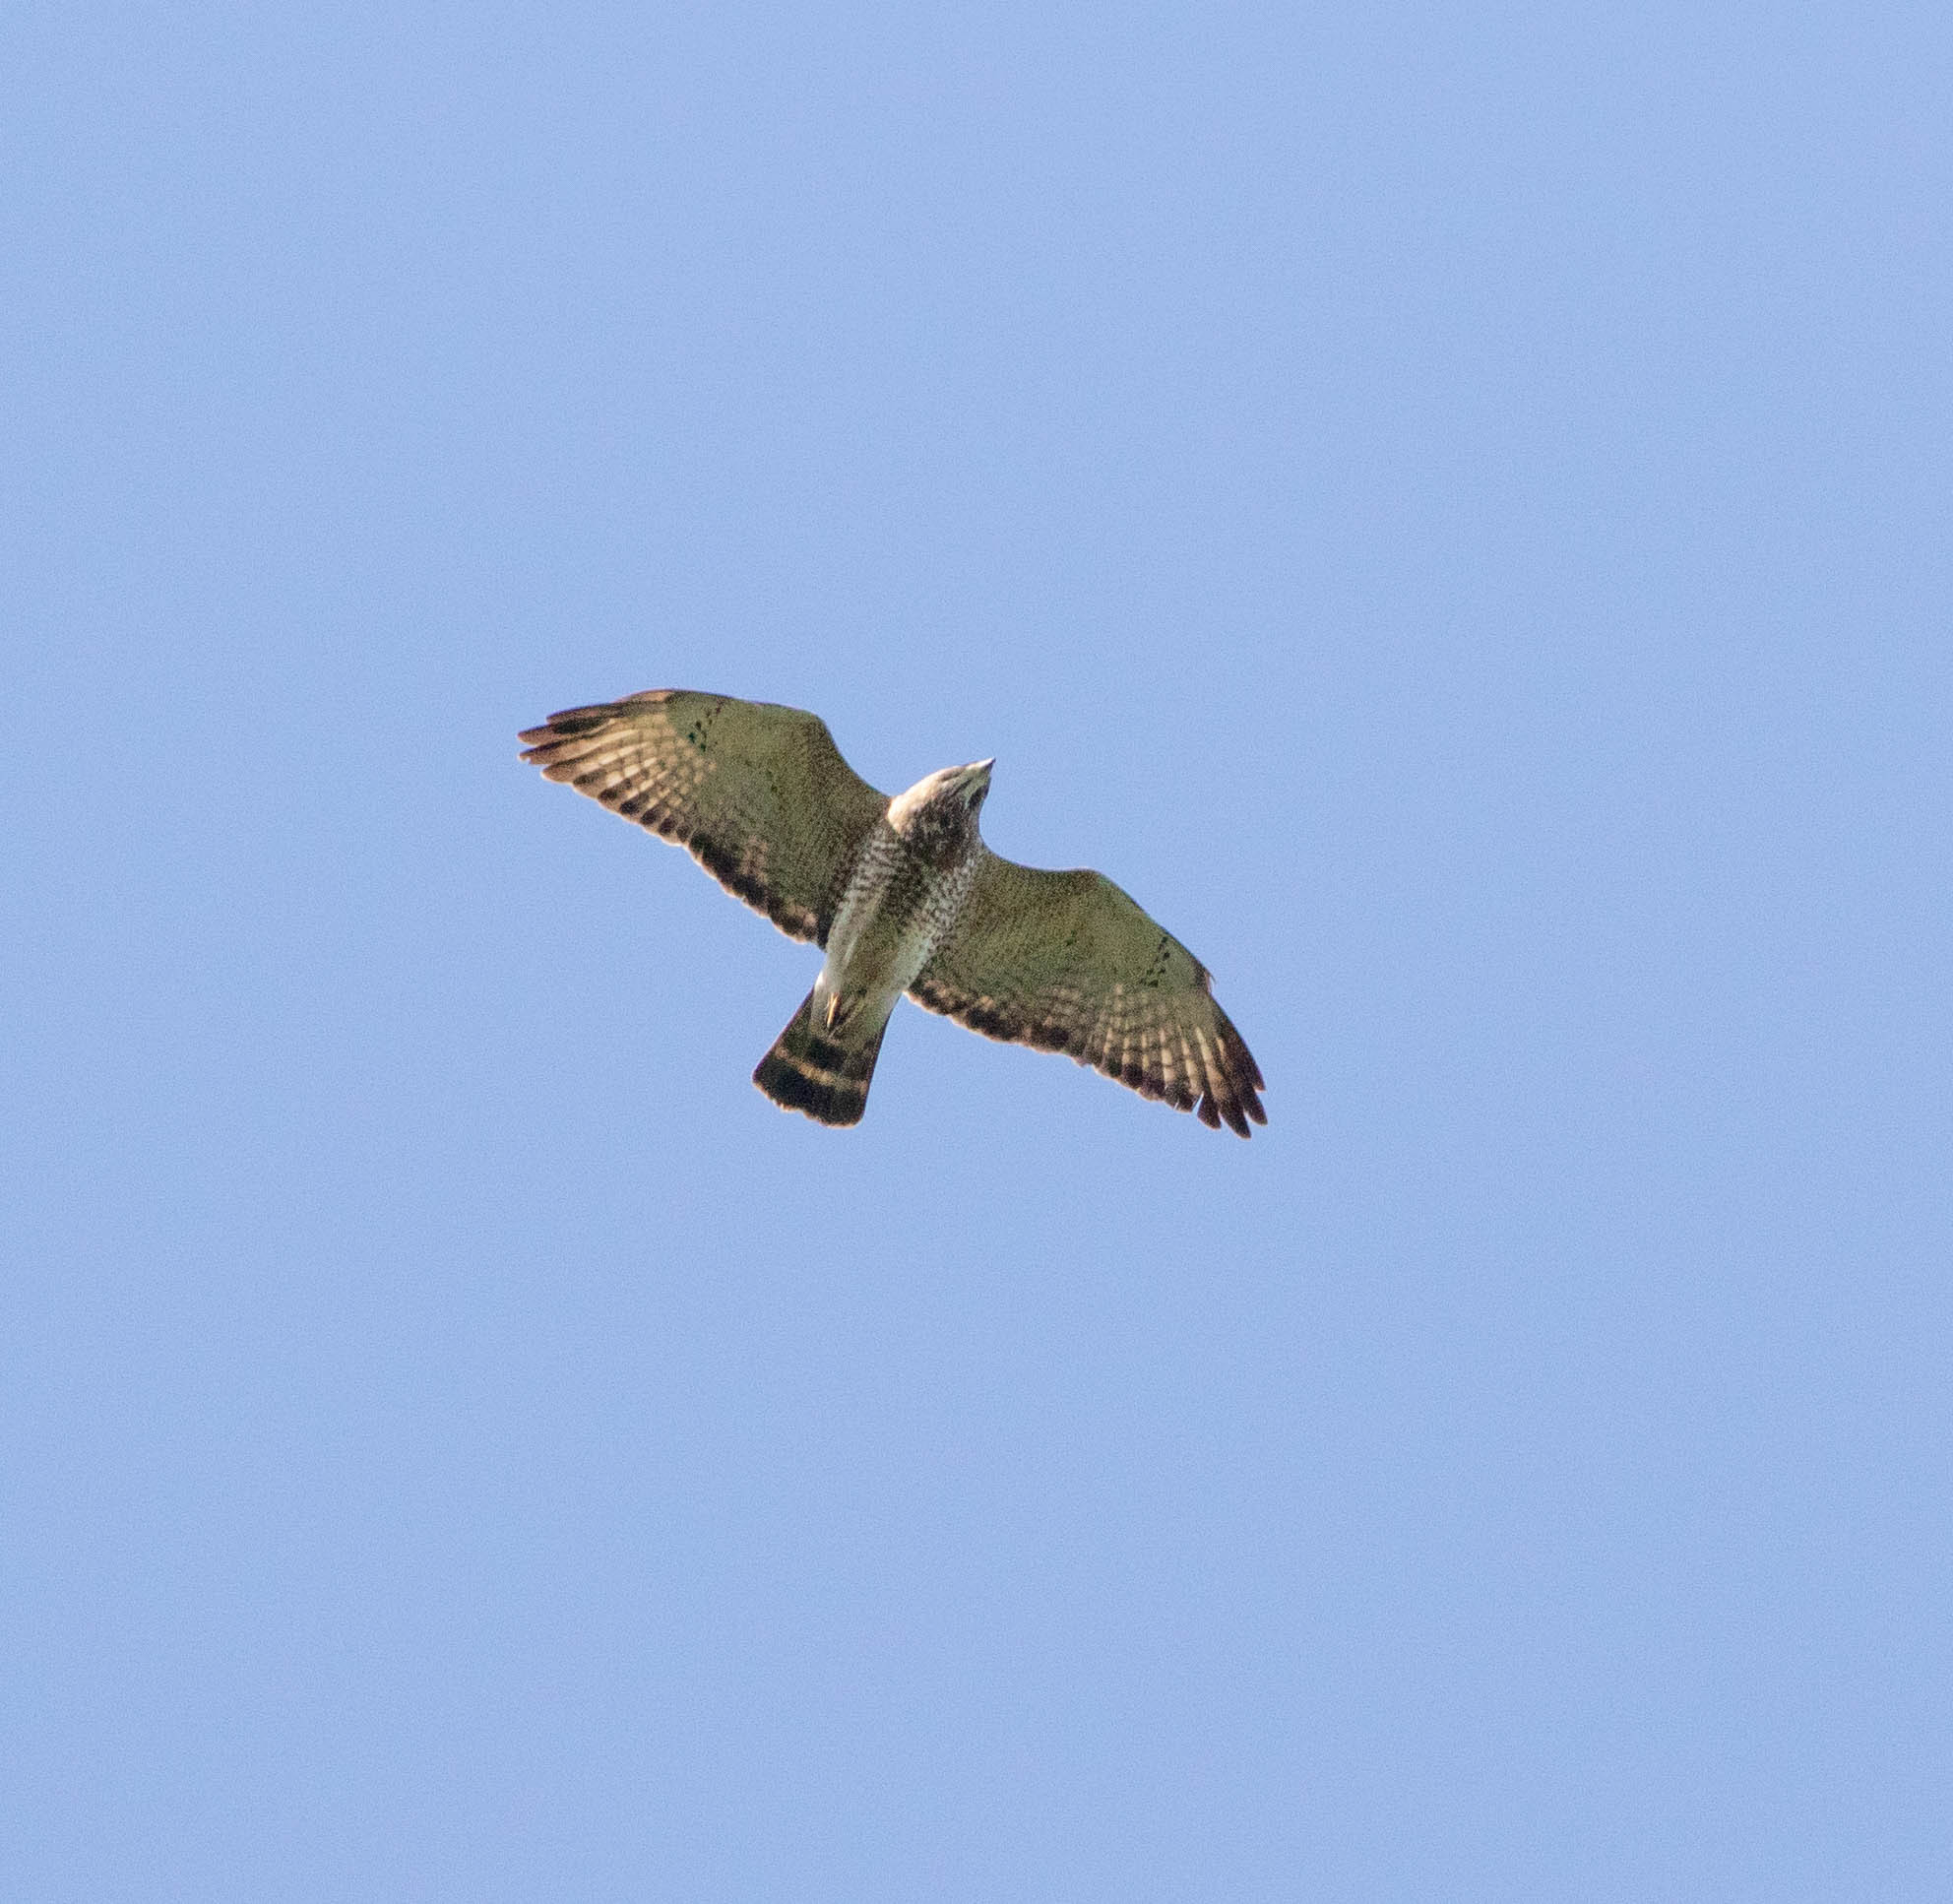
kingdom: Animalia
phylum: Chordata
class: Aves
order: Accipitriformes
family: Accipitridae
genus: Buteo
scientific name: Buteo platypterus
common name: Broad-winged hawk
